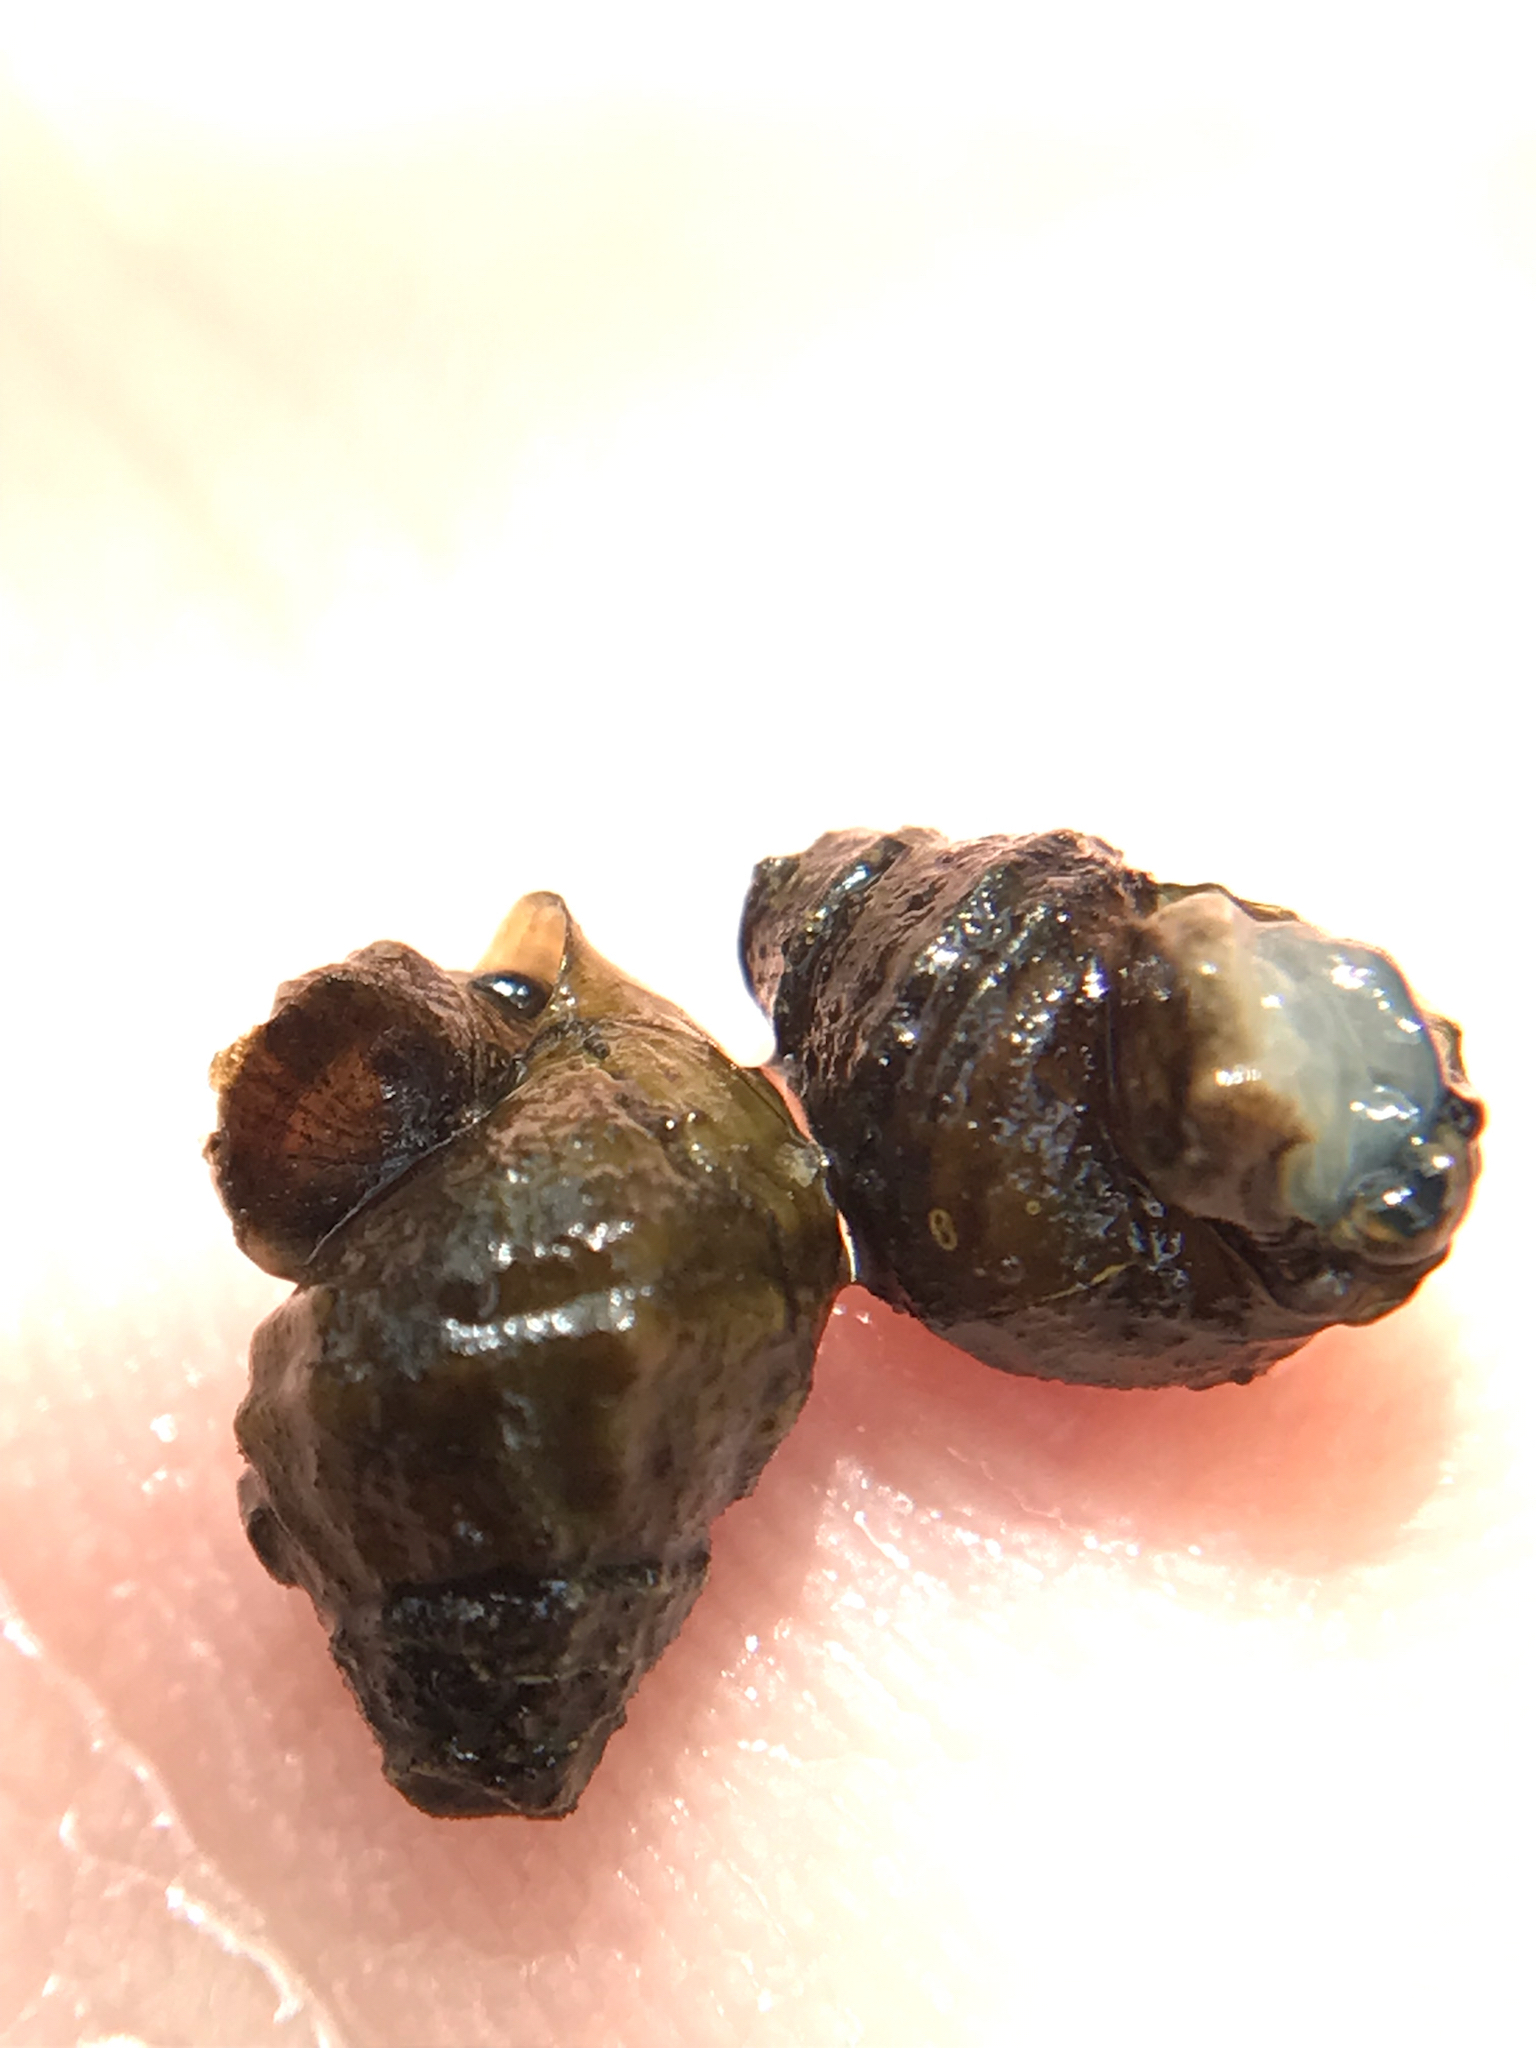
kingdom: Animalia
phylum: Mollusca
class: Gastropoda
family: Pleuroceridae
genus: Elimia
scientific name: Elimia christyi
